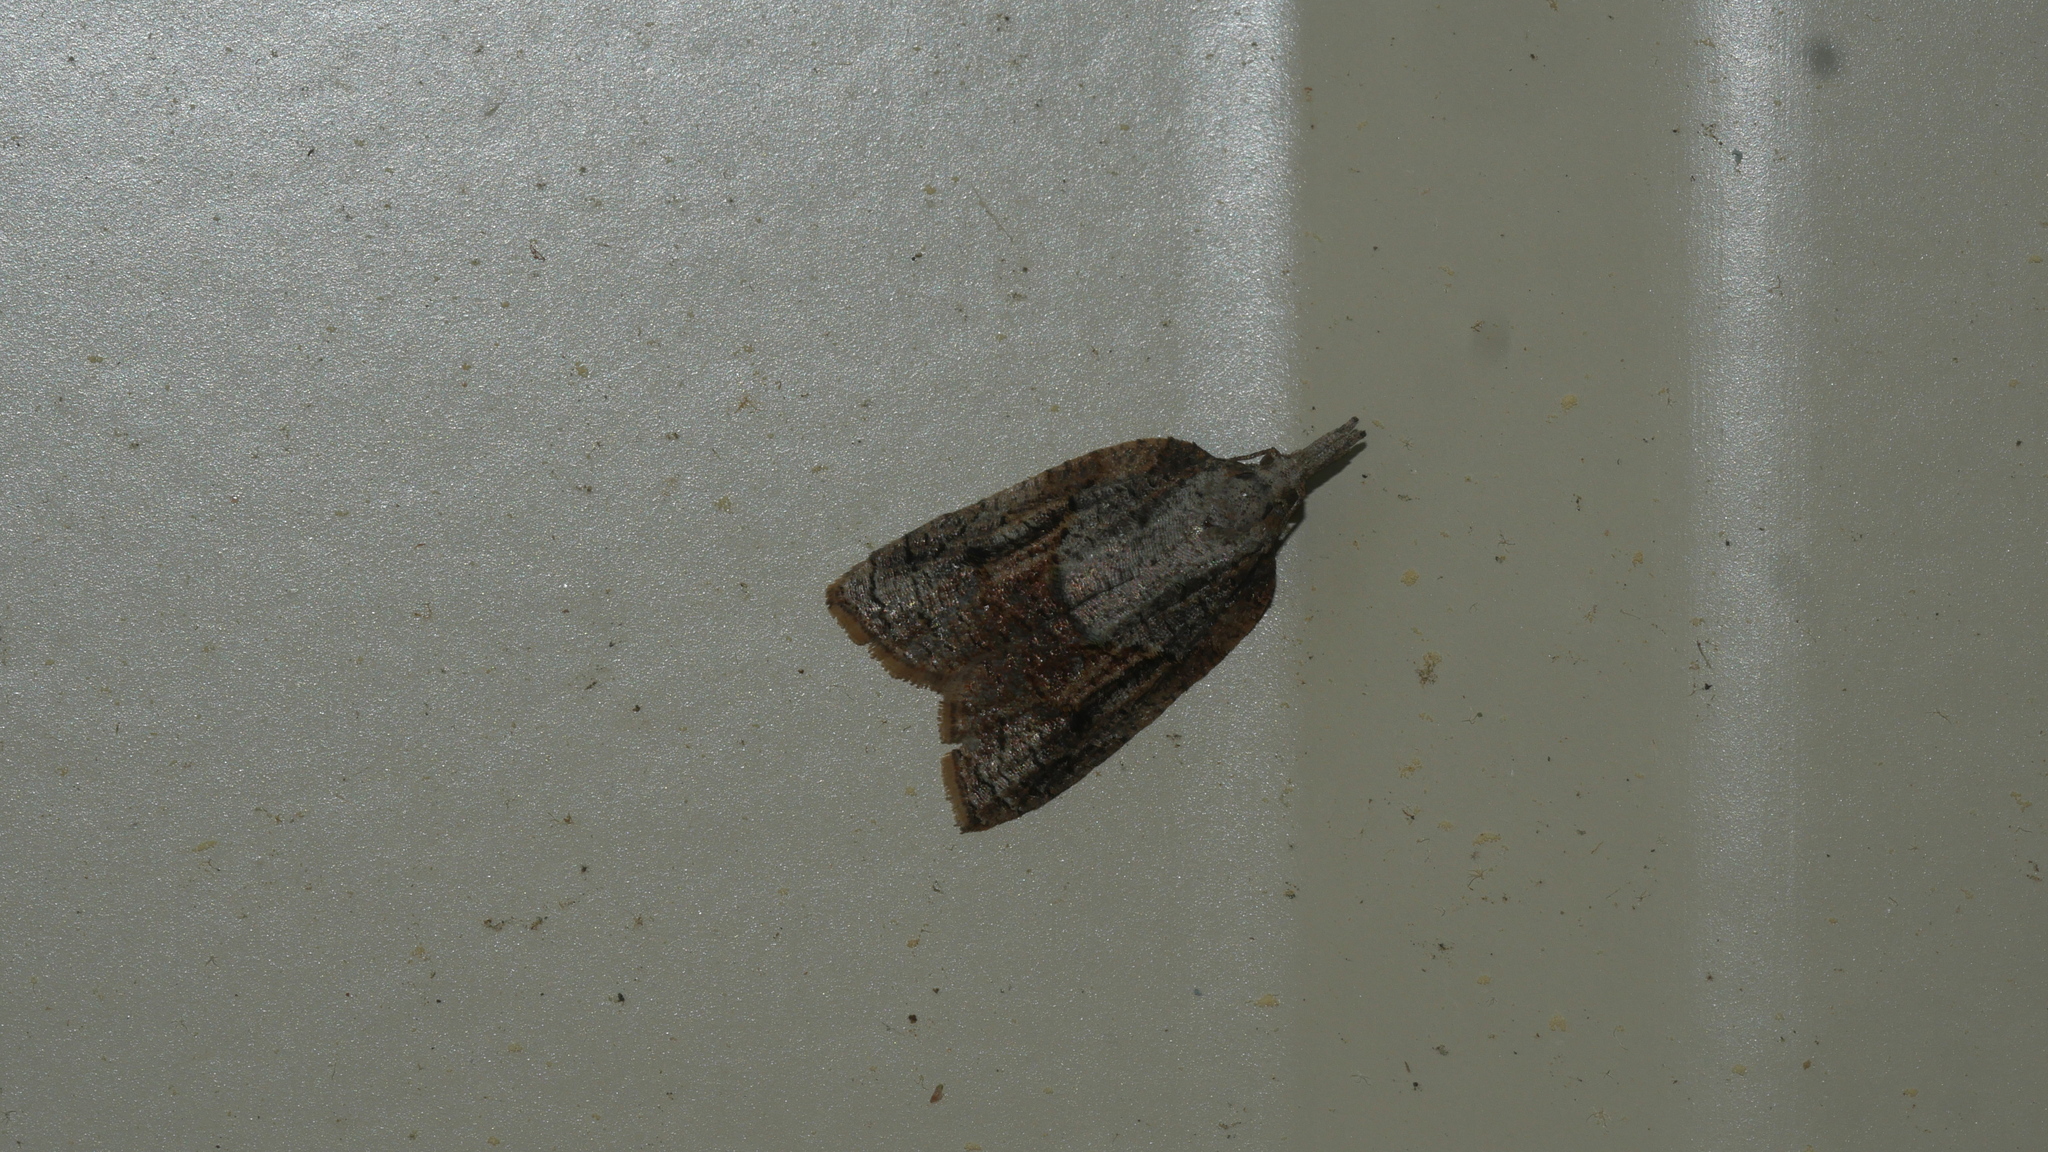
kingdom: Animalia
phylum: Arthropoda
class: Insecta
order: Lepidoptera
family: Tortricidae
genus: Platynota
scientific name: Platynota idaeusalis
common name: Tufted apple bud moth
